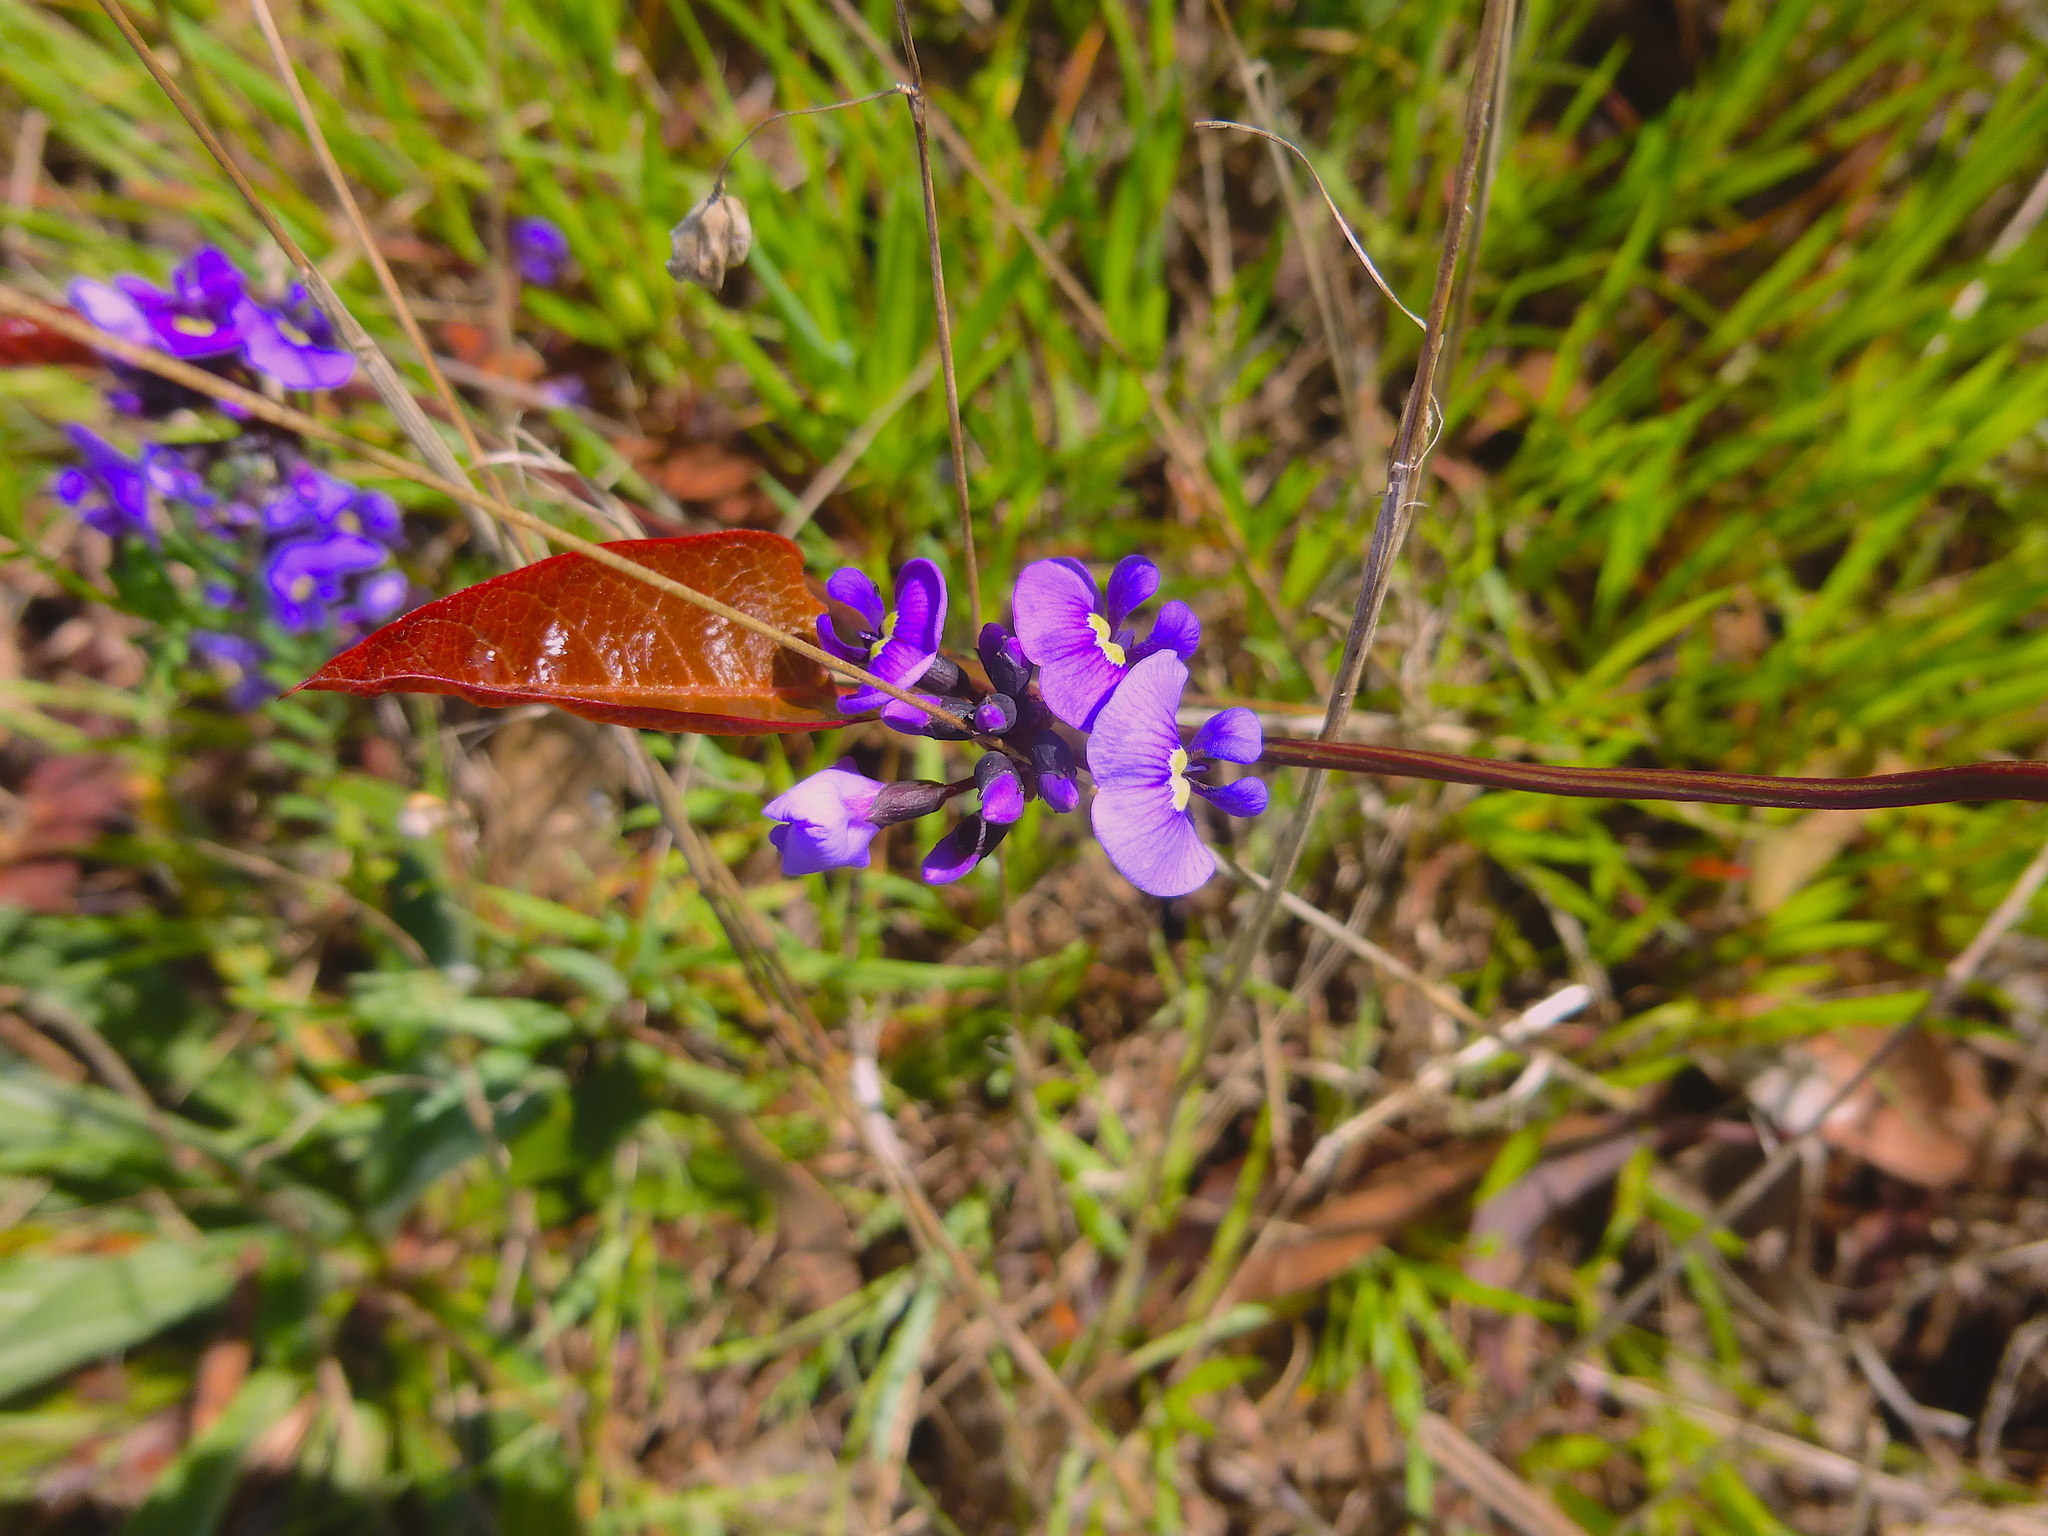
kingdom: Plantae
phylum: Tracheophyta
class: Magnoliopsida
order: Fabales
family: Fabaceae
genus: Hardenbergia
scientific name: Hardenbergia violacea
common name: Coral-pea
